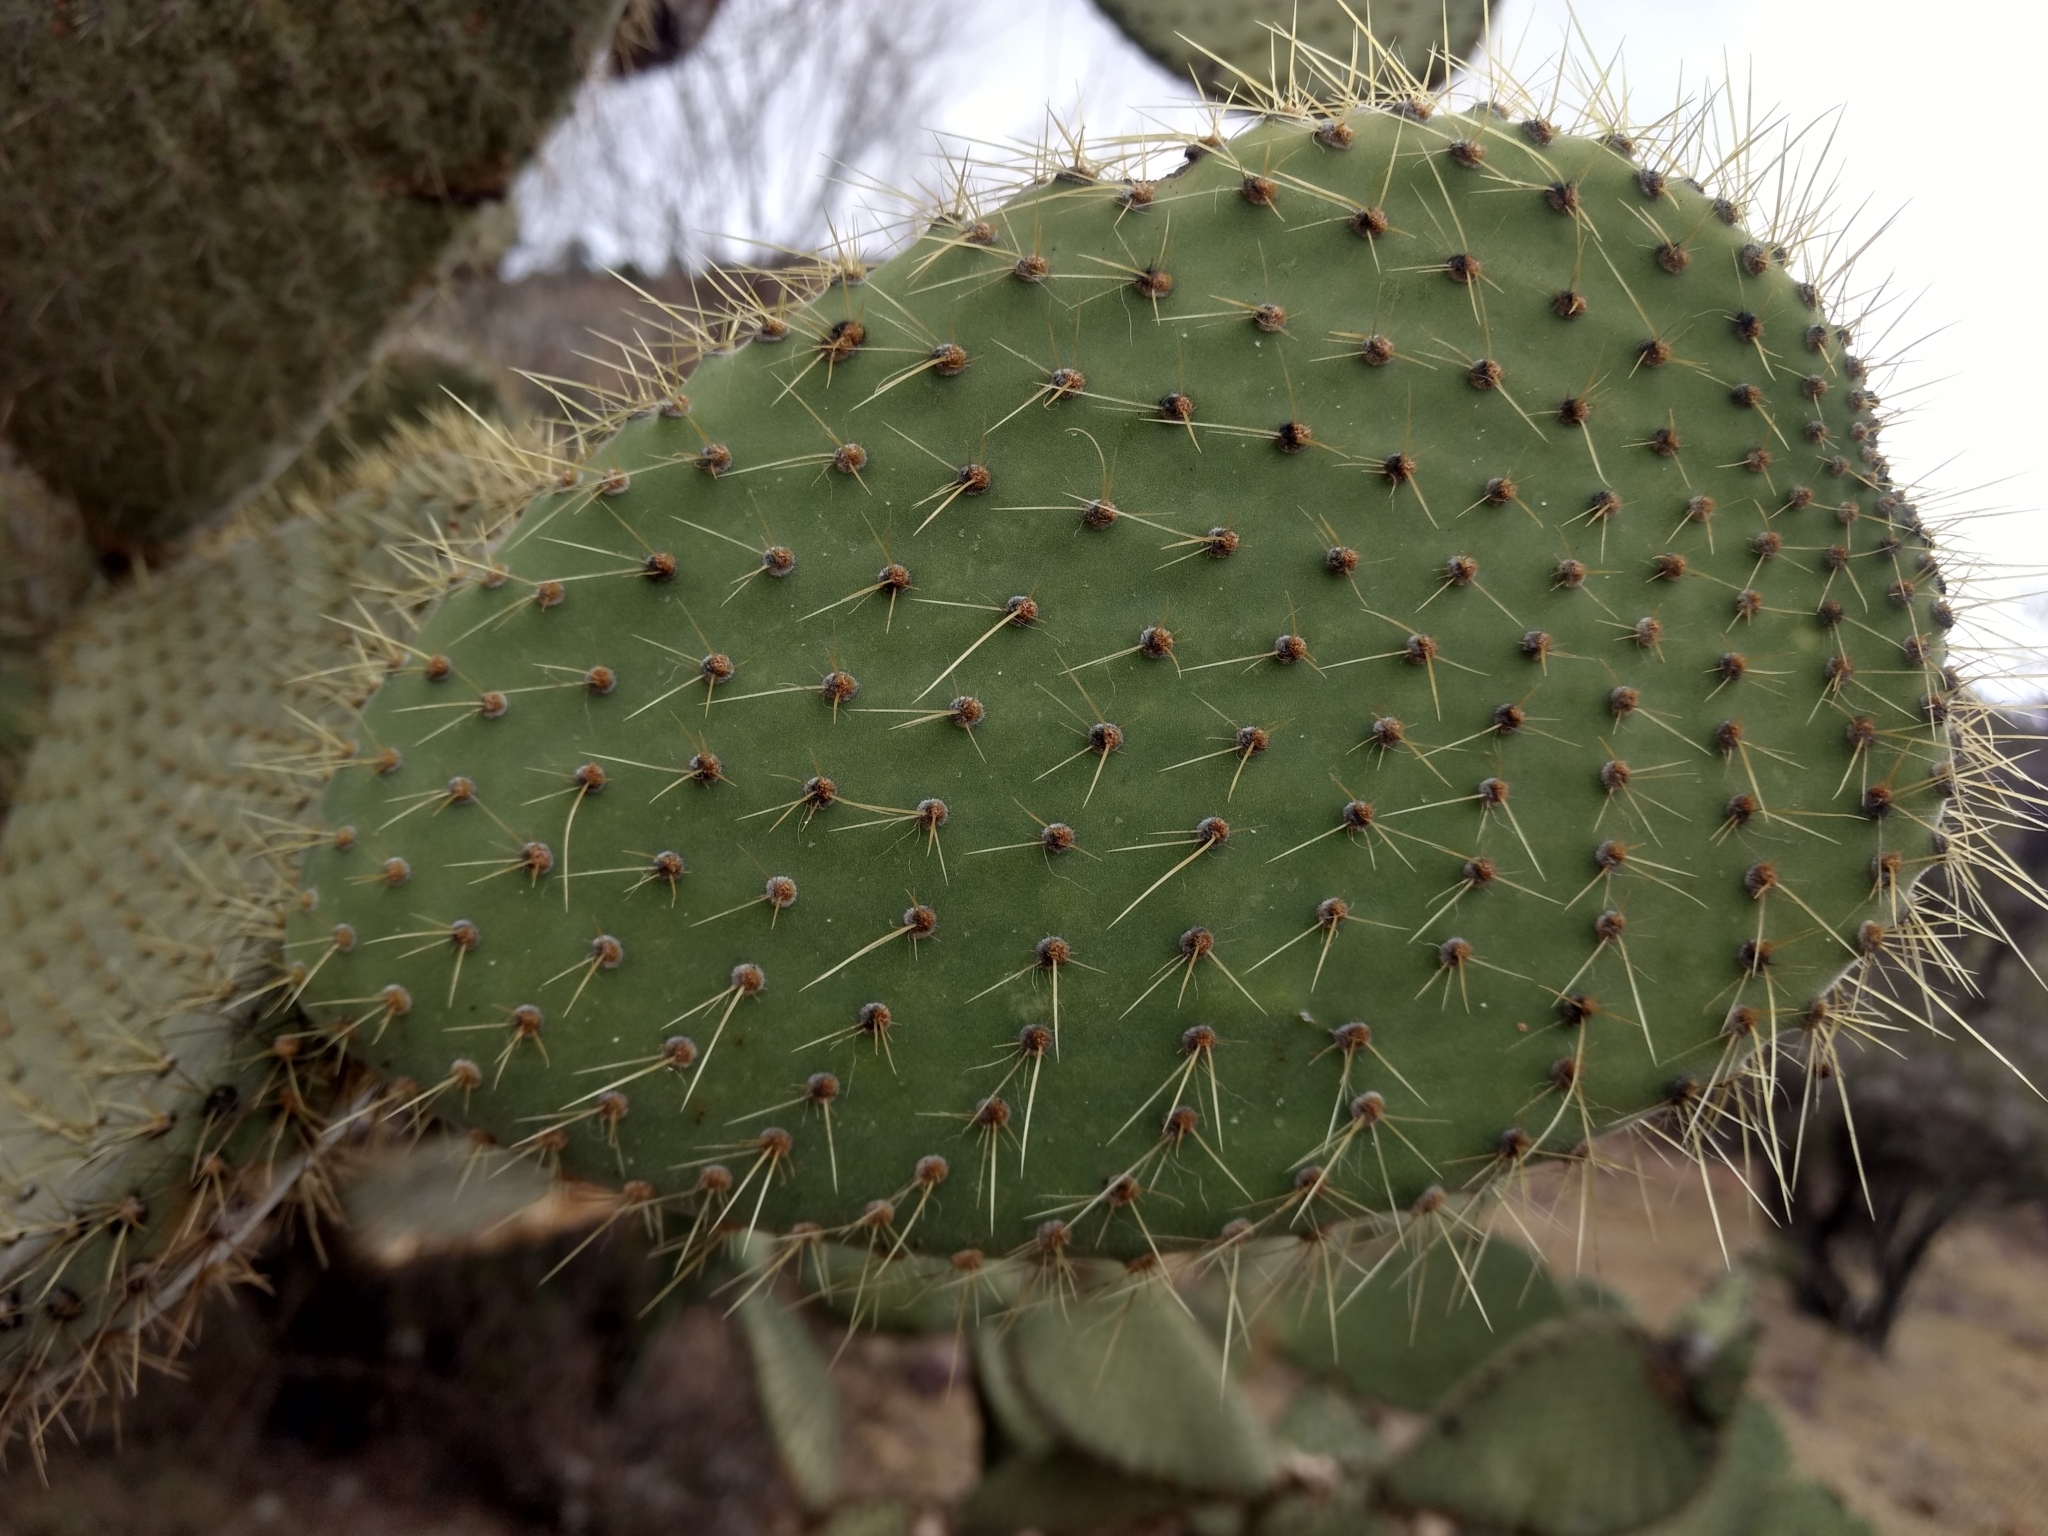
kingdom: Plantae
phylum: Tracheophyta
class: Magnoliopsida
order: Caryophyllales
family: Cactaceae
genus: Opuntia
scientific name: Opuntia leucotricha
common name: Arborescent pricklypear
